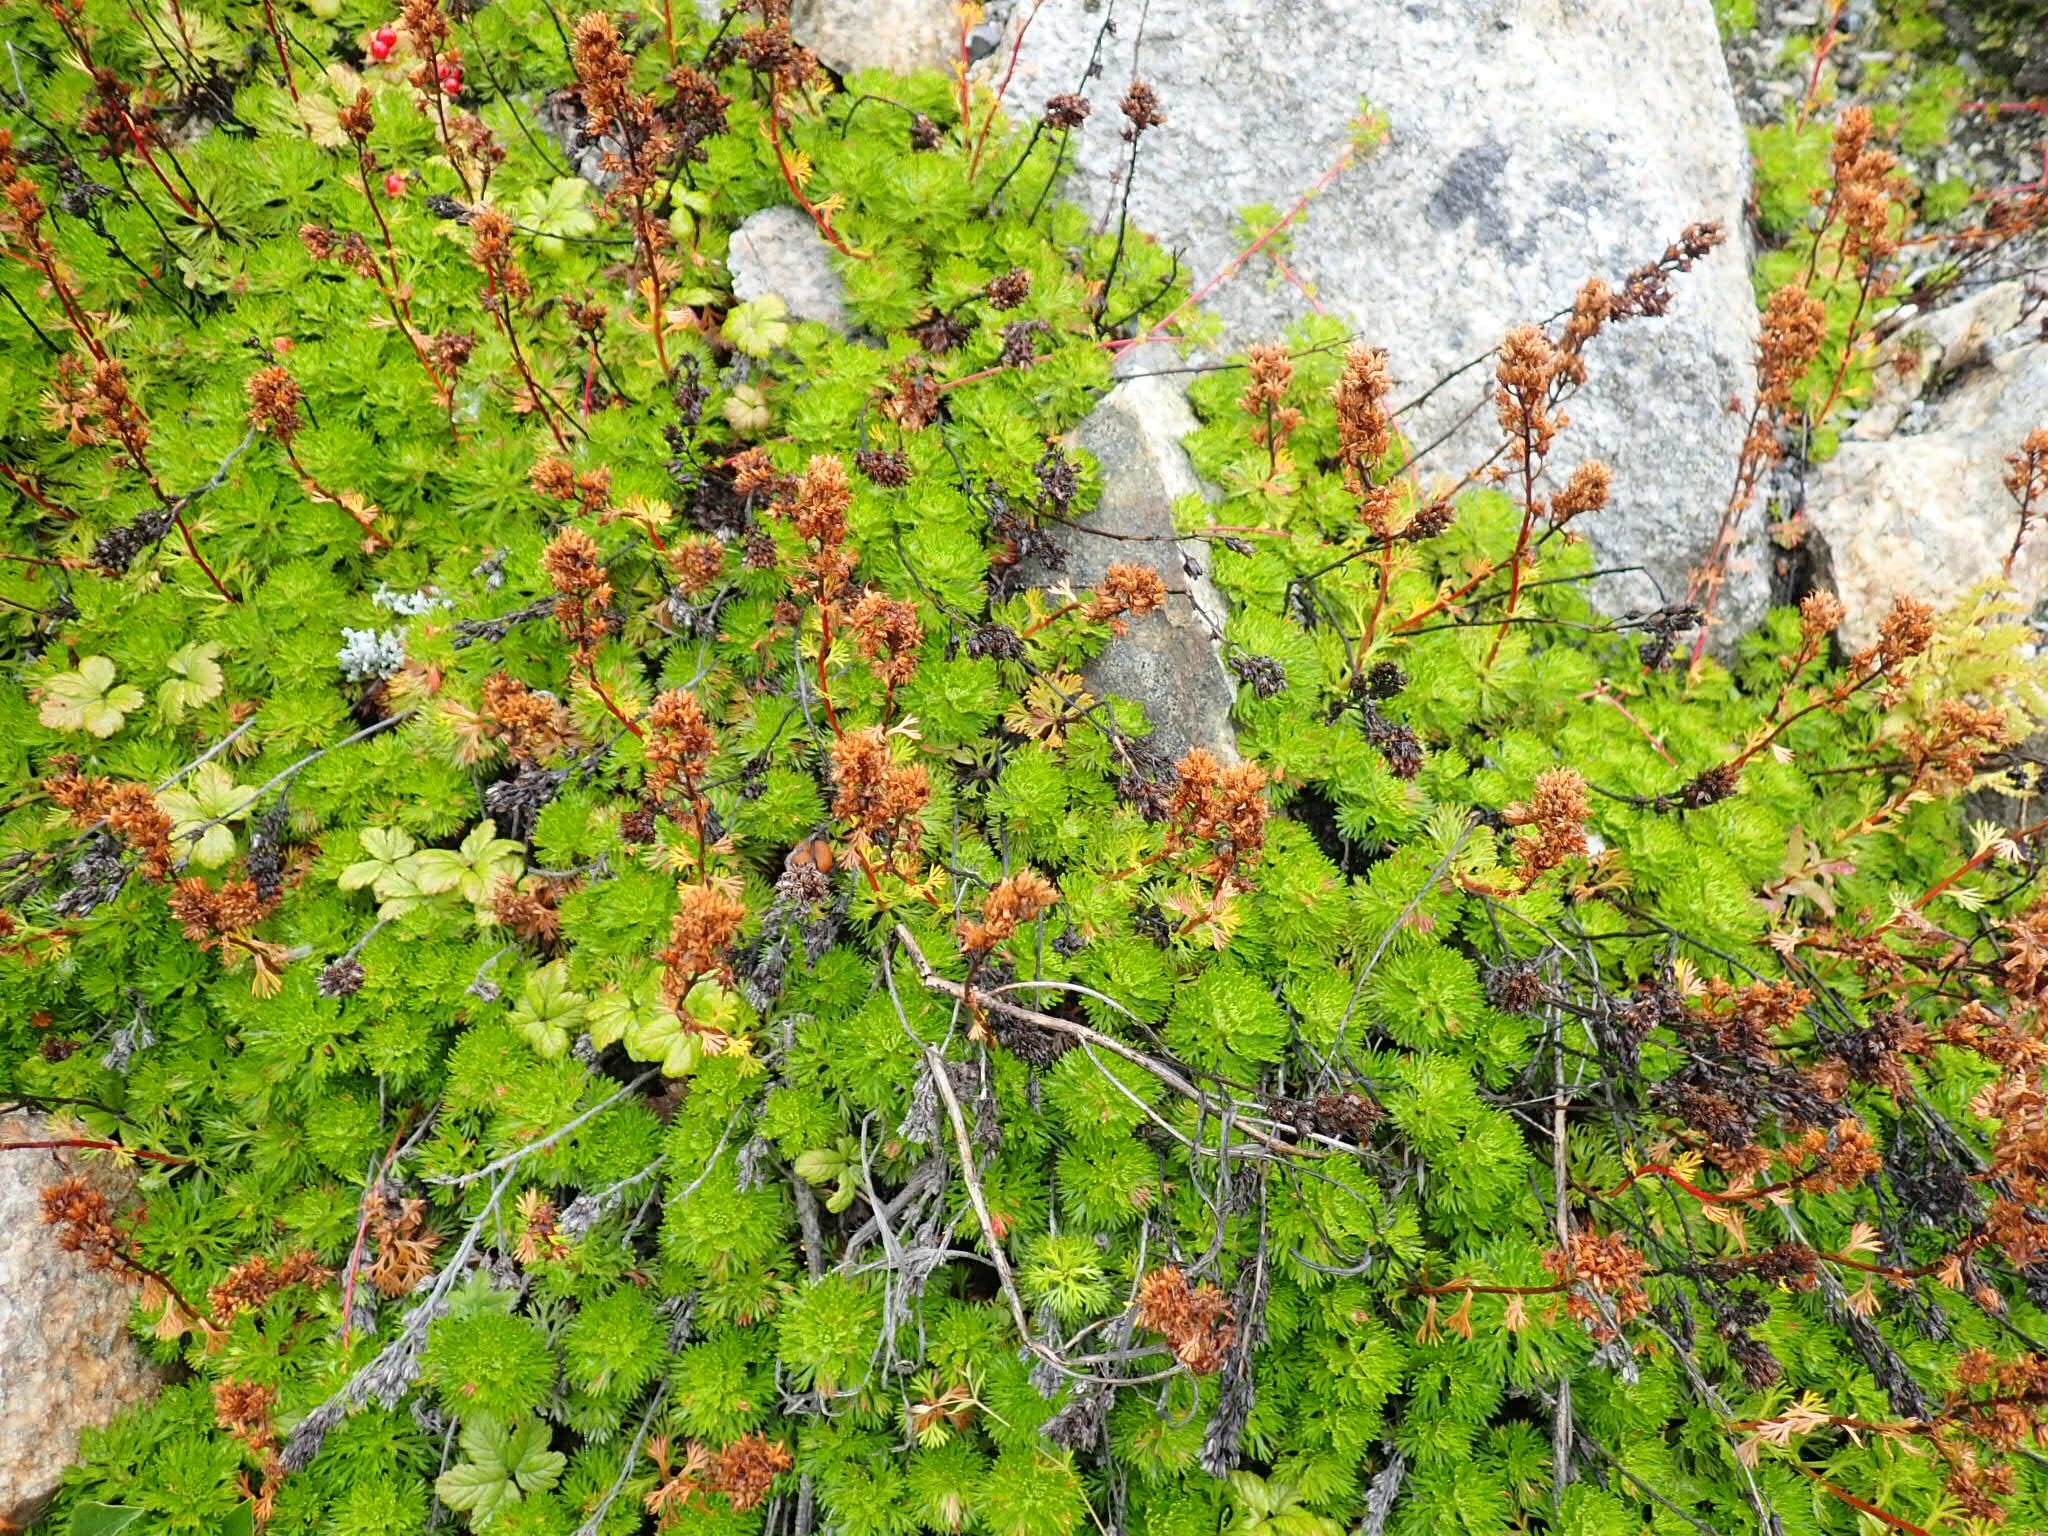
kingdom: Plantae
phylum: Tracheophyta
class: Magnoliopsida
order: Rosales
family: Rosaceae
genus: Luetkea
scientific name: Luetkea pectinata
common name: Partridgefoot
